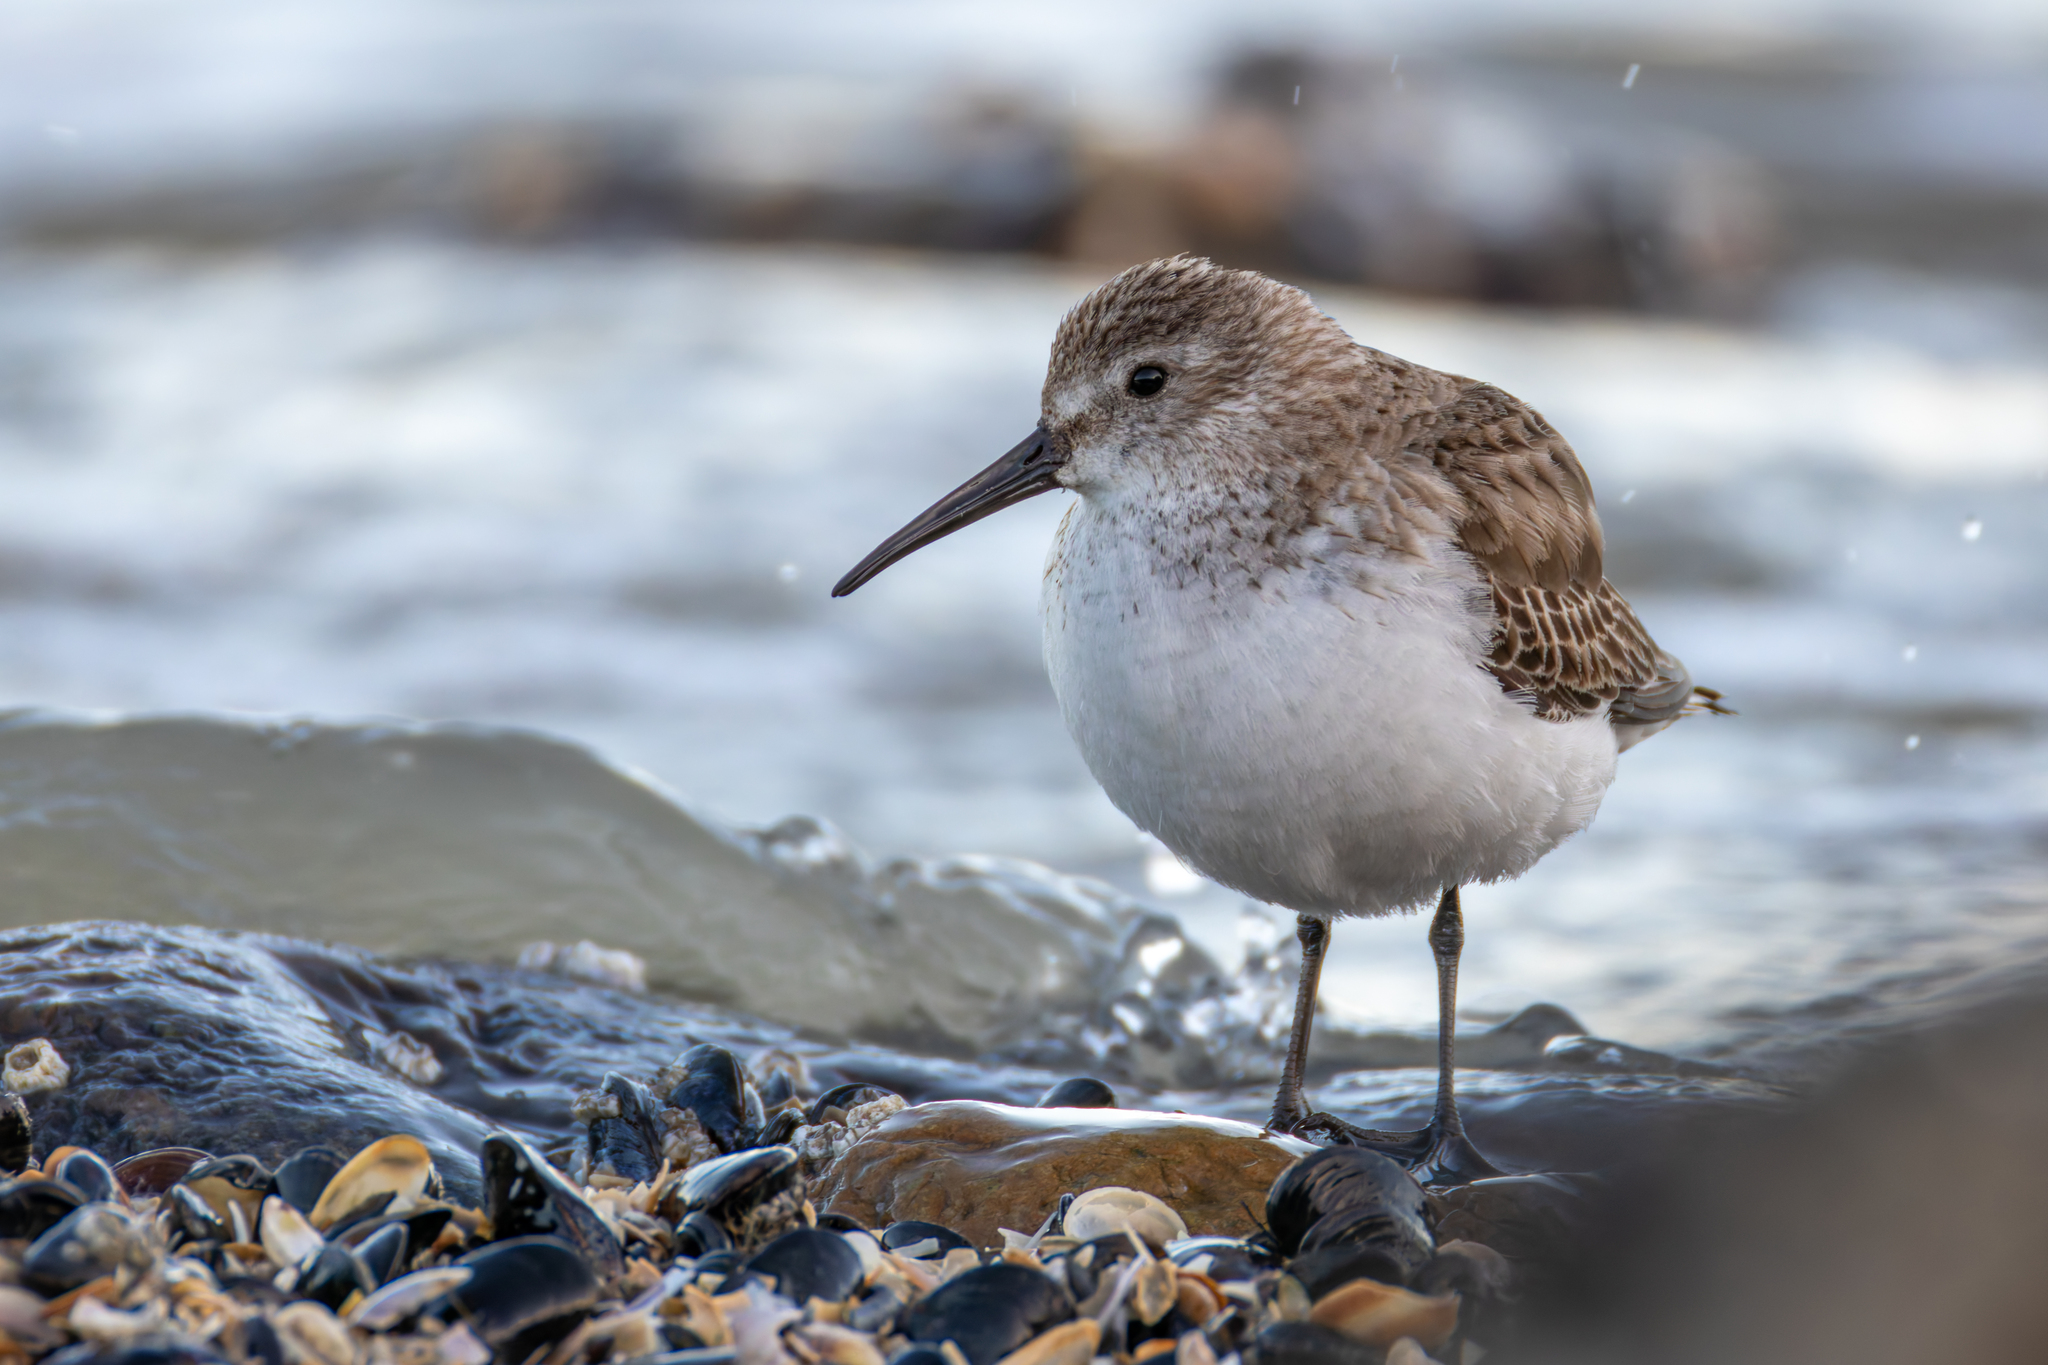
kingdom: Animalia
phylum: Chordata
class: Aves
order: Charadriiformes
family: Scolopacidae
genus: Calidris
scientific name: Calidris alpina
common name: Dunlin
